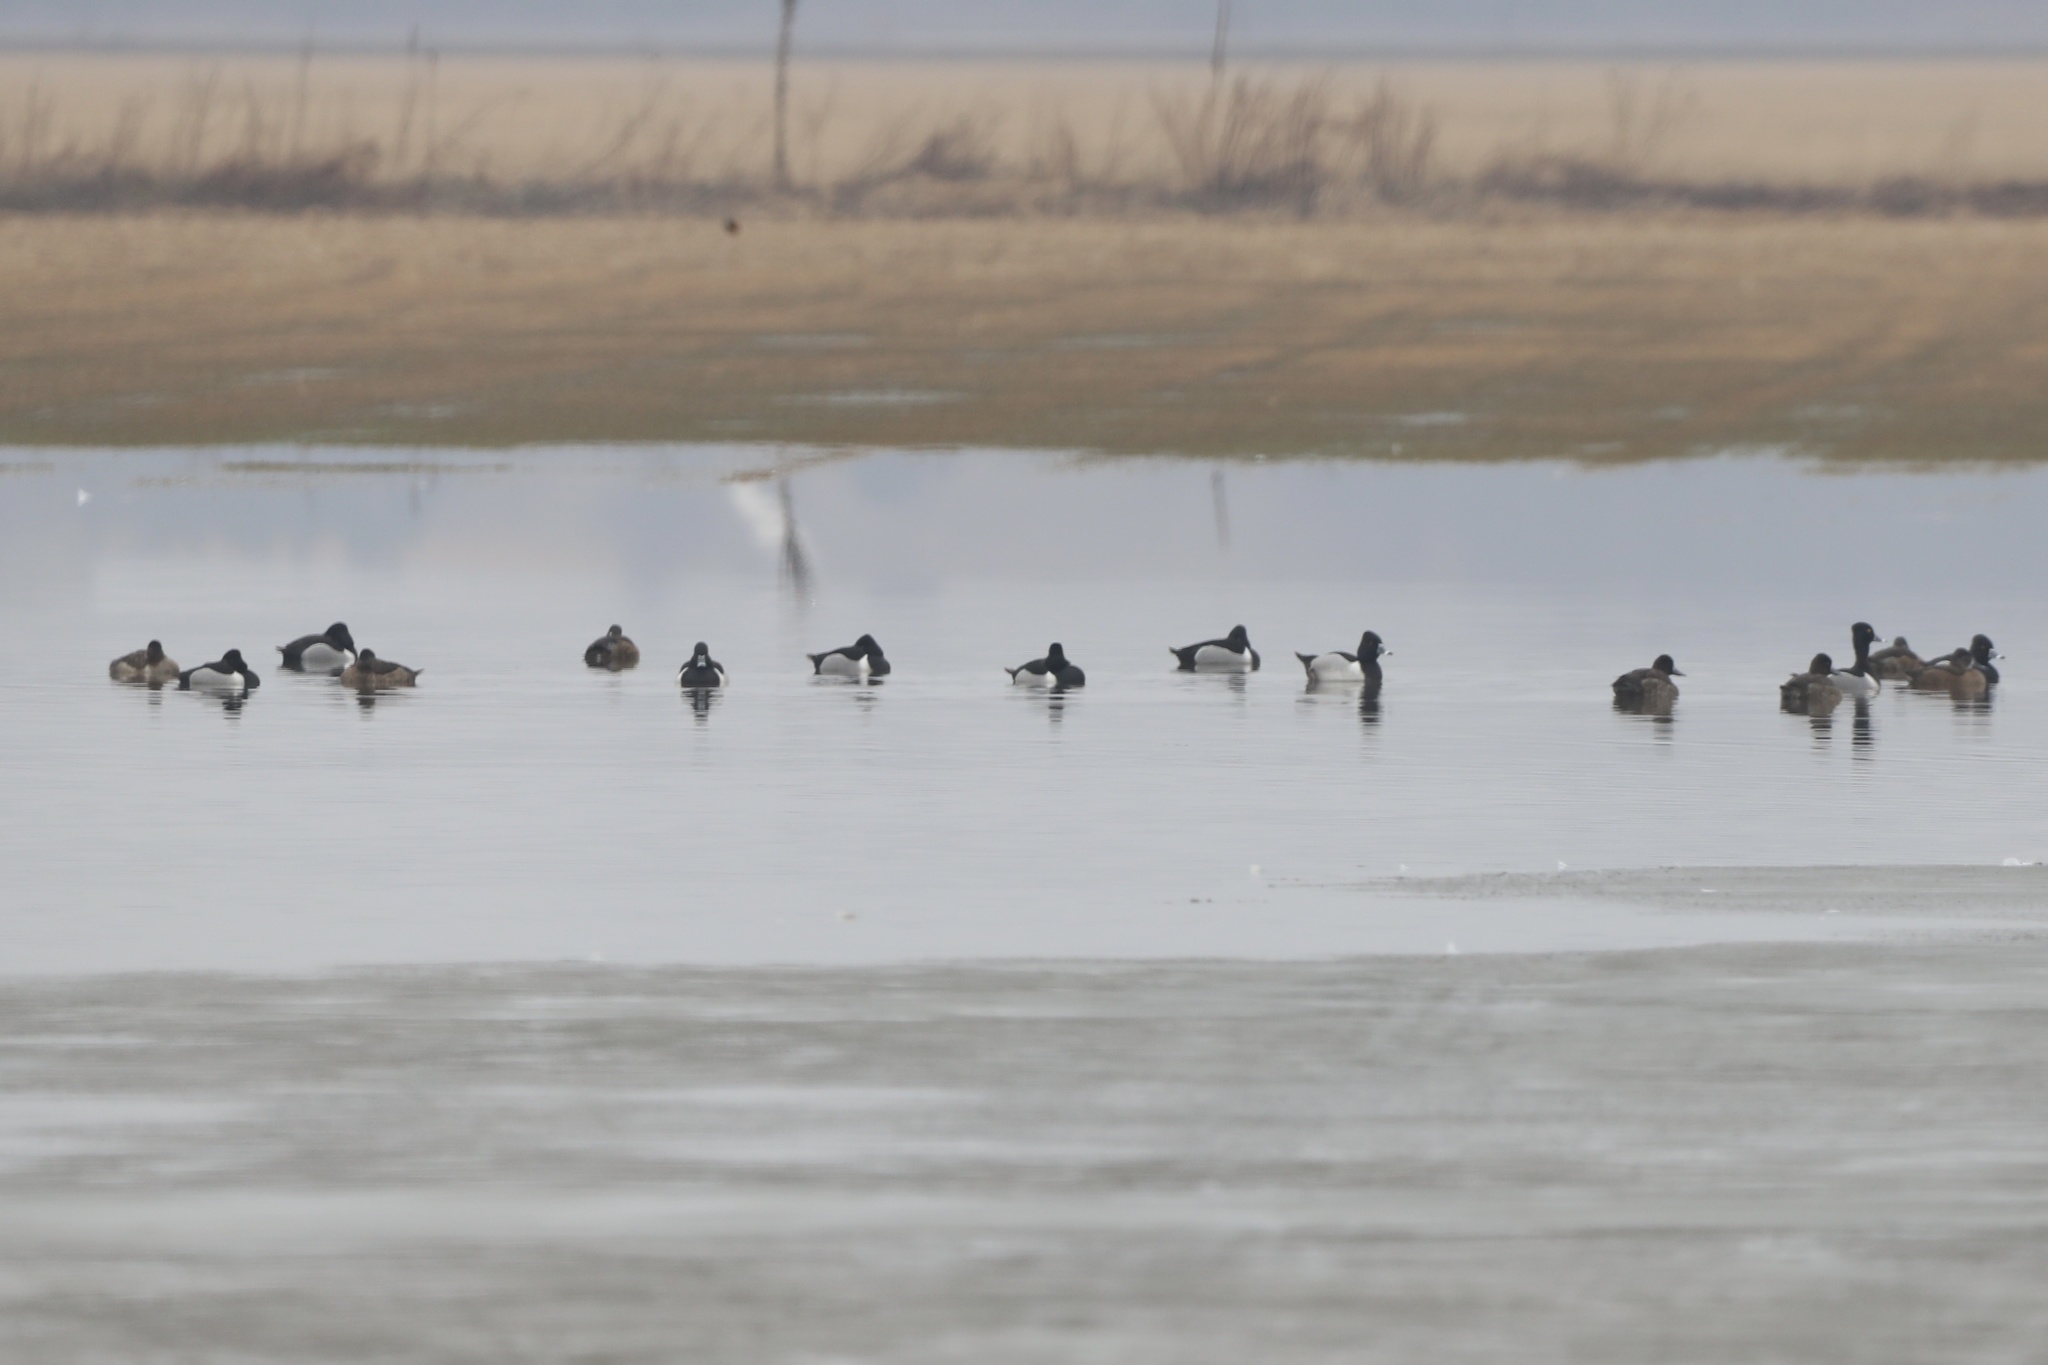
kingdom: Animalia
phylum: Chordata
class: Aves
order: Anseriformes
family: Anatidae
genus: Aythya
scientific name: Aythya collaris
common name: Ring-necked duck
